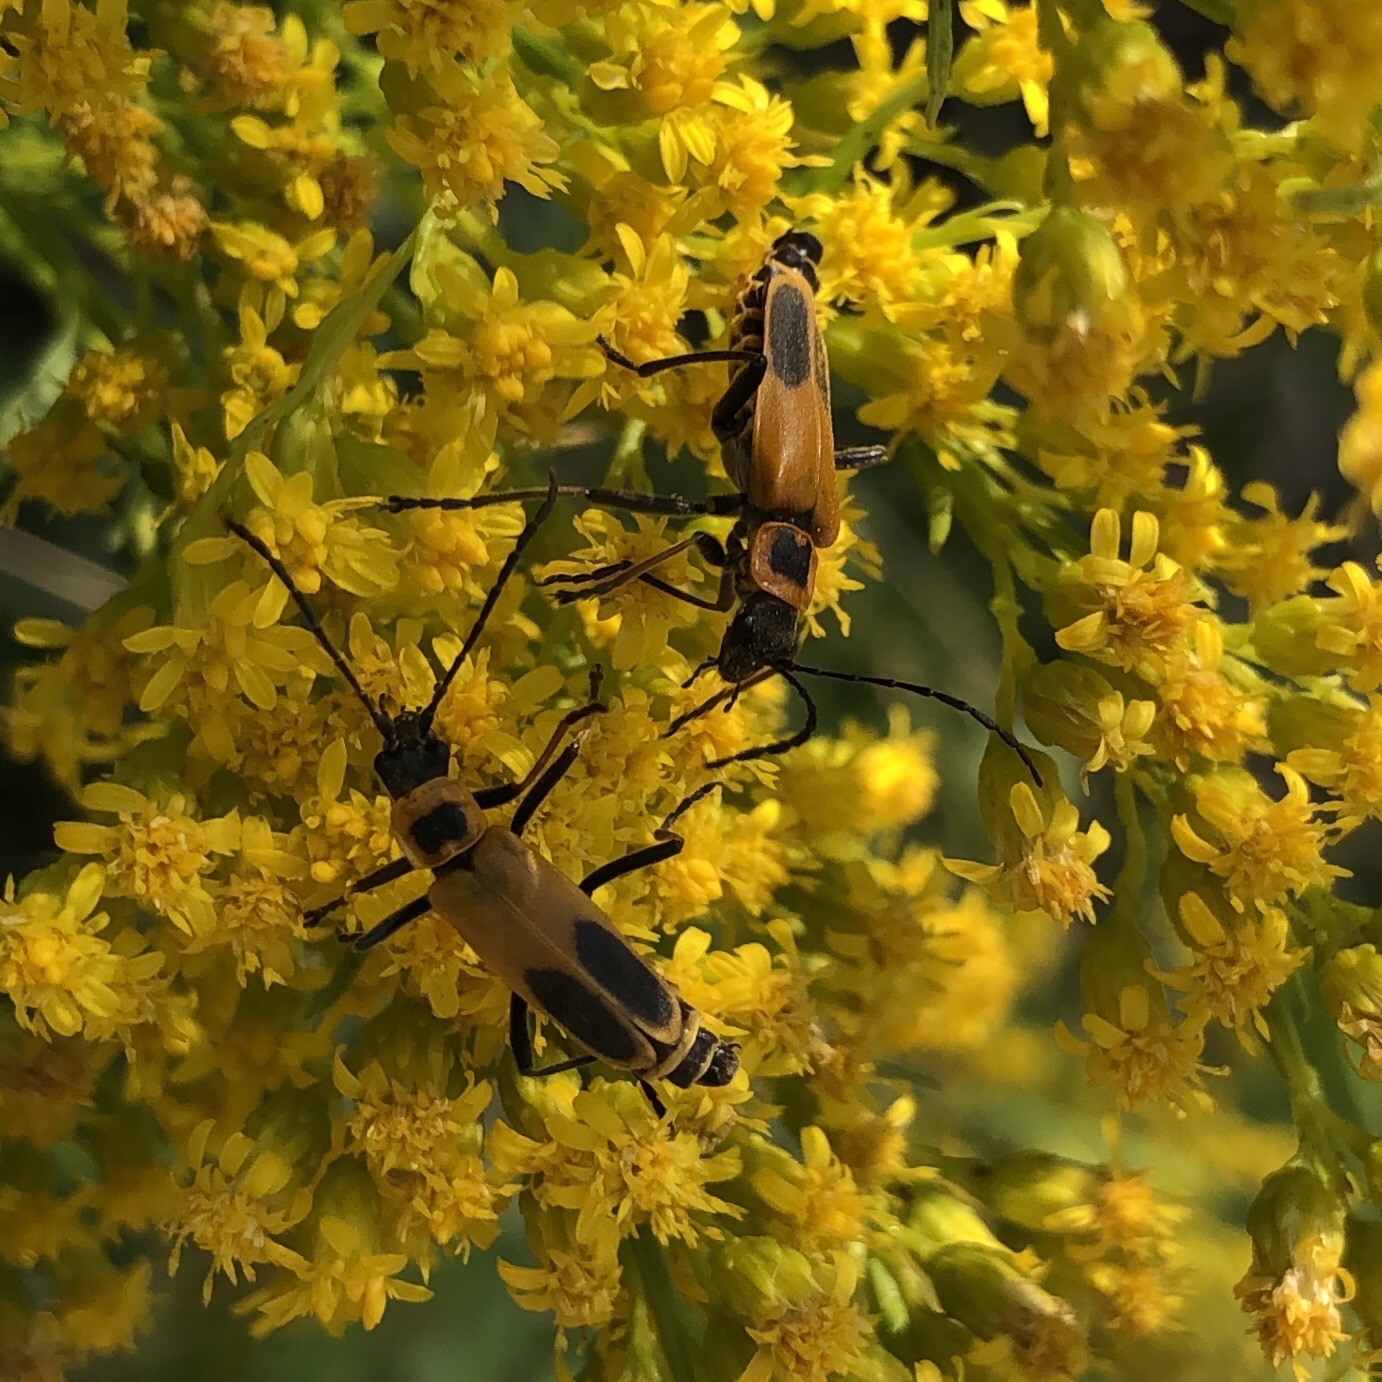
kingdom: Animalia
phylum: Arthropoda
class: Insecta
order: Coleoptera
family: Cantharidae
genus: Chauliognathus
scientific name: Chauliognathus pensylvanicus
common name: Goldenrod soldier beetle
